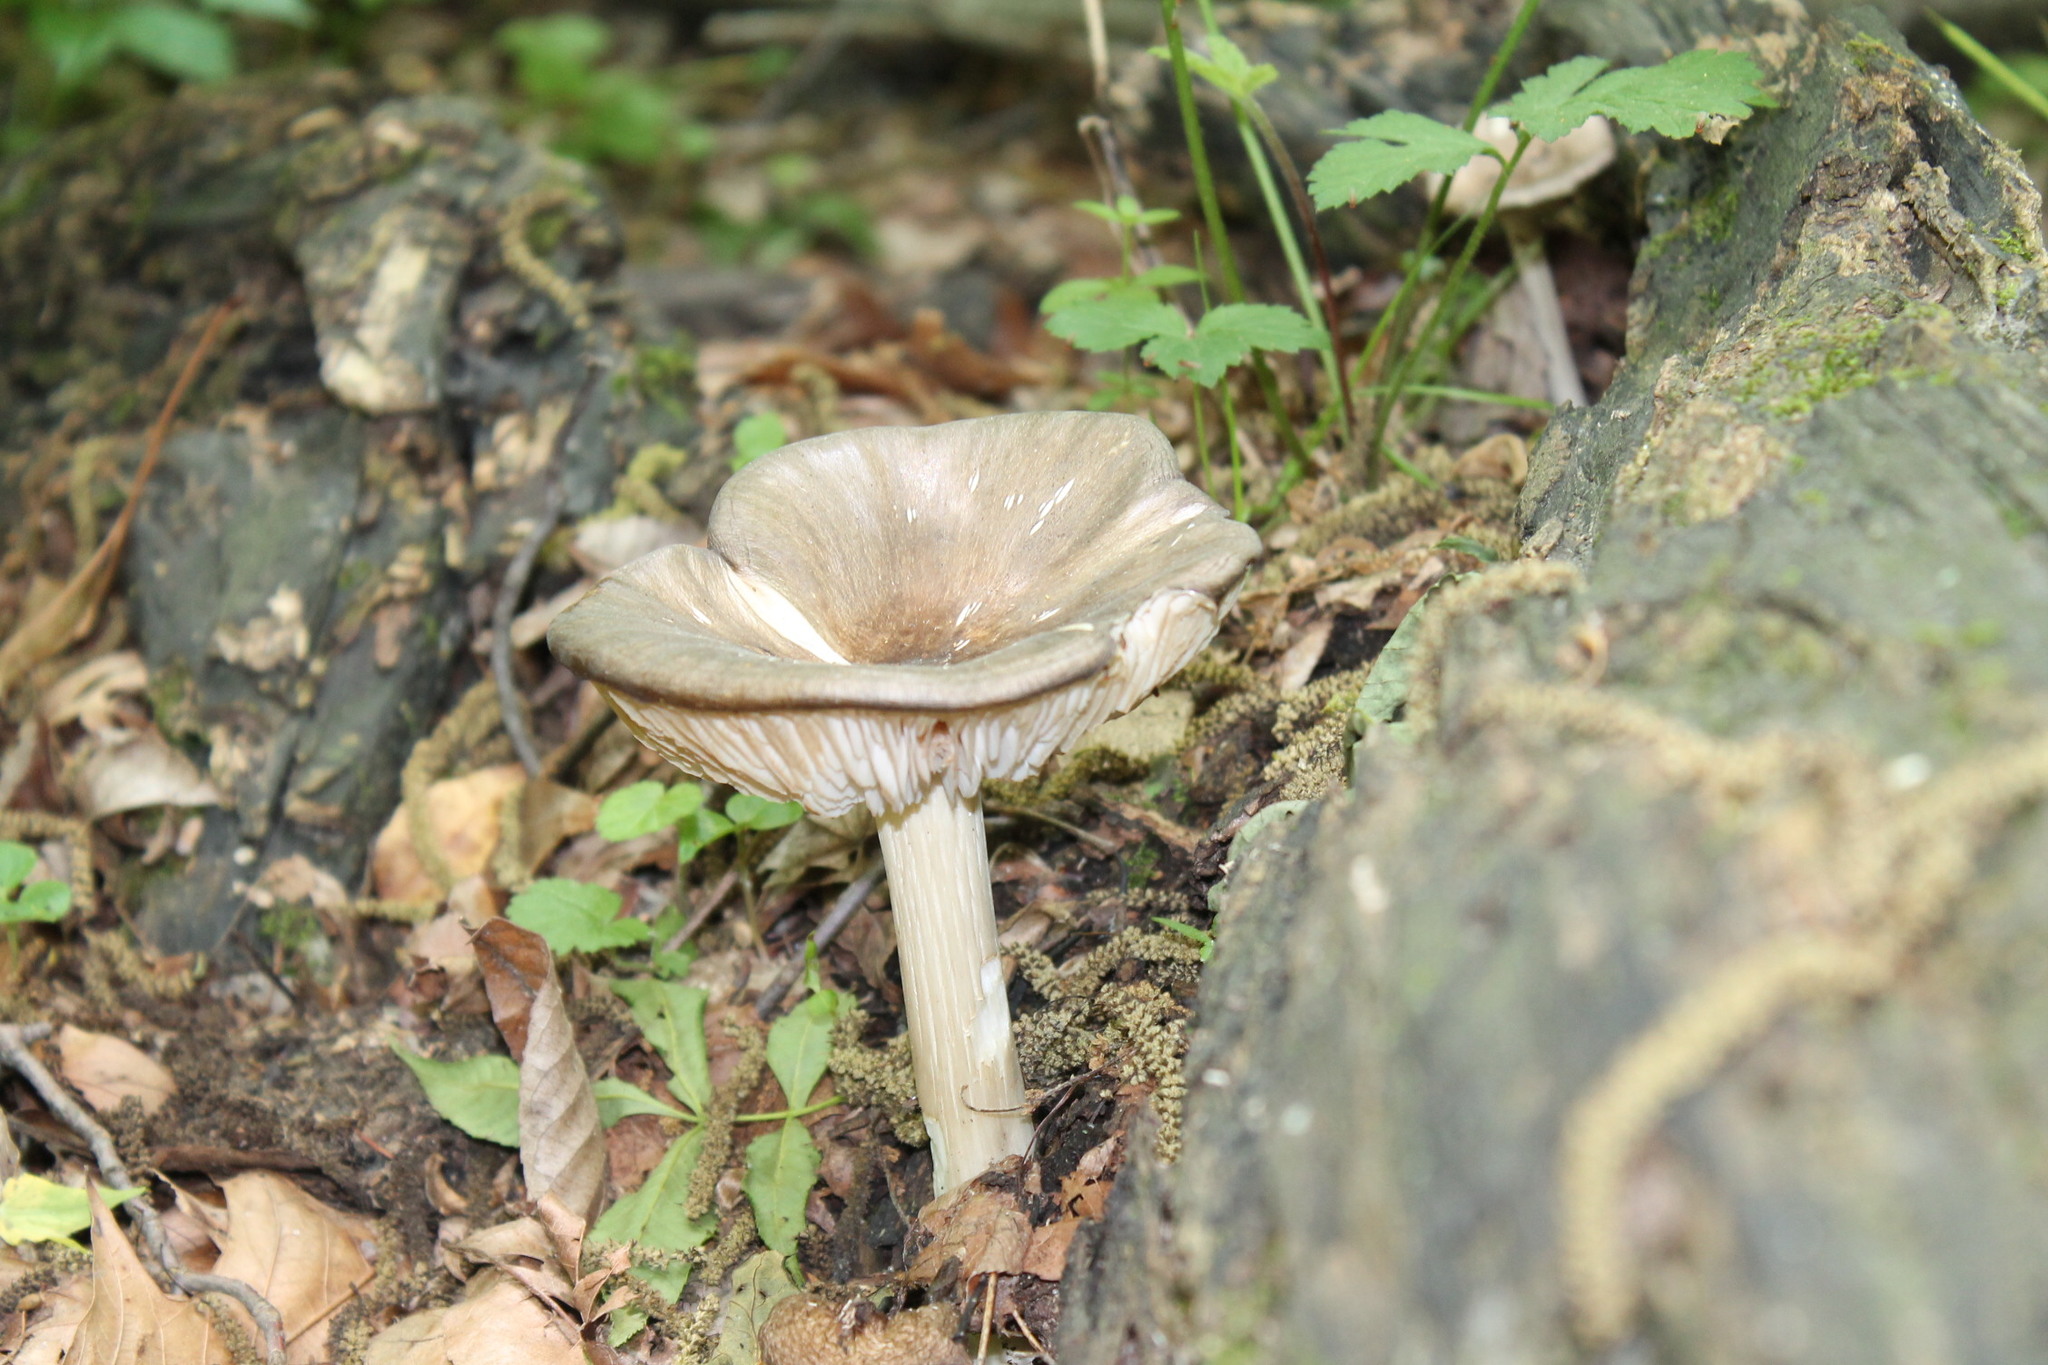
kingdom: Fungi
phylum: Basidiomycota
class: Agaricomycetes
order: Agaricales
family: Tricholomataceae
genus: Megacollybia
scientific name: Megacollybia rodmanii
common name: Eastern american platterful mushroom
